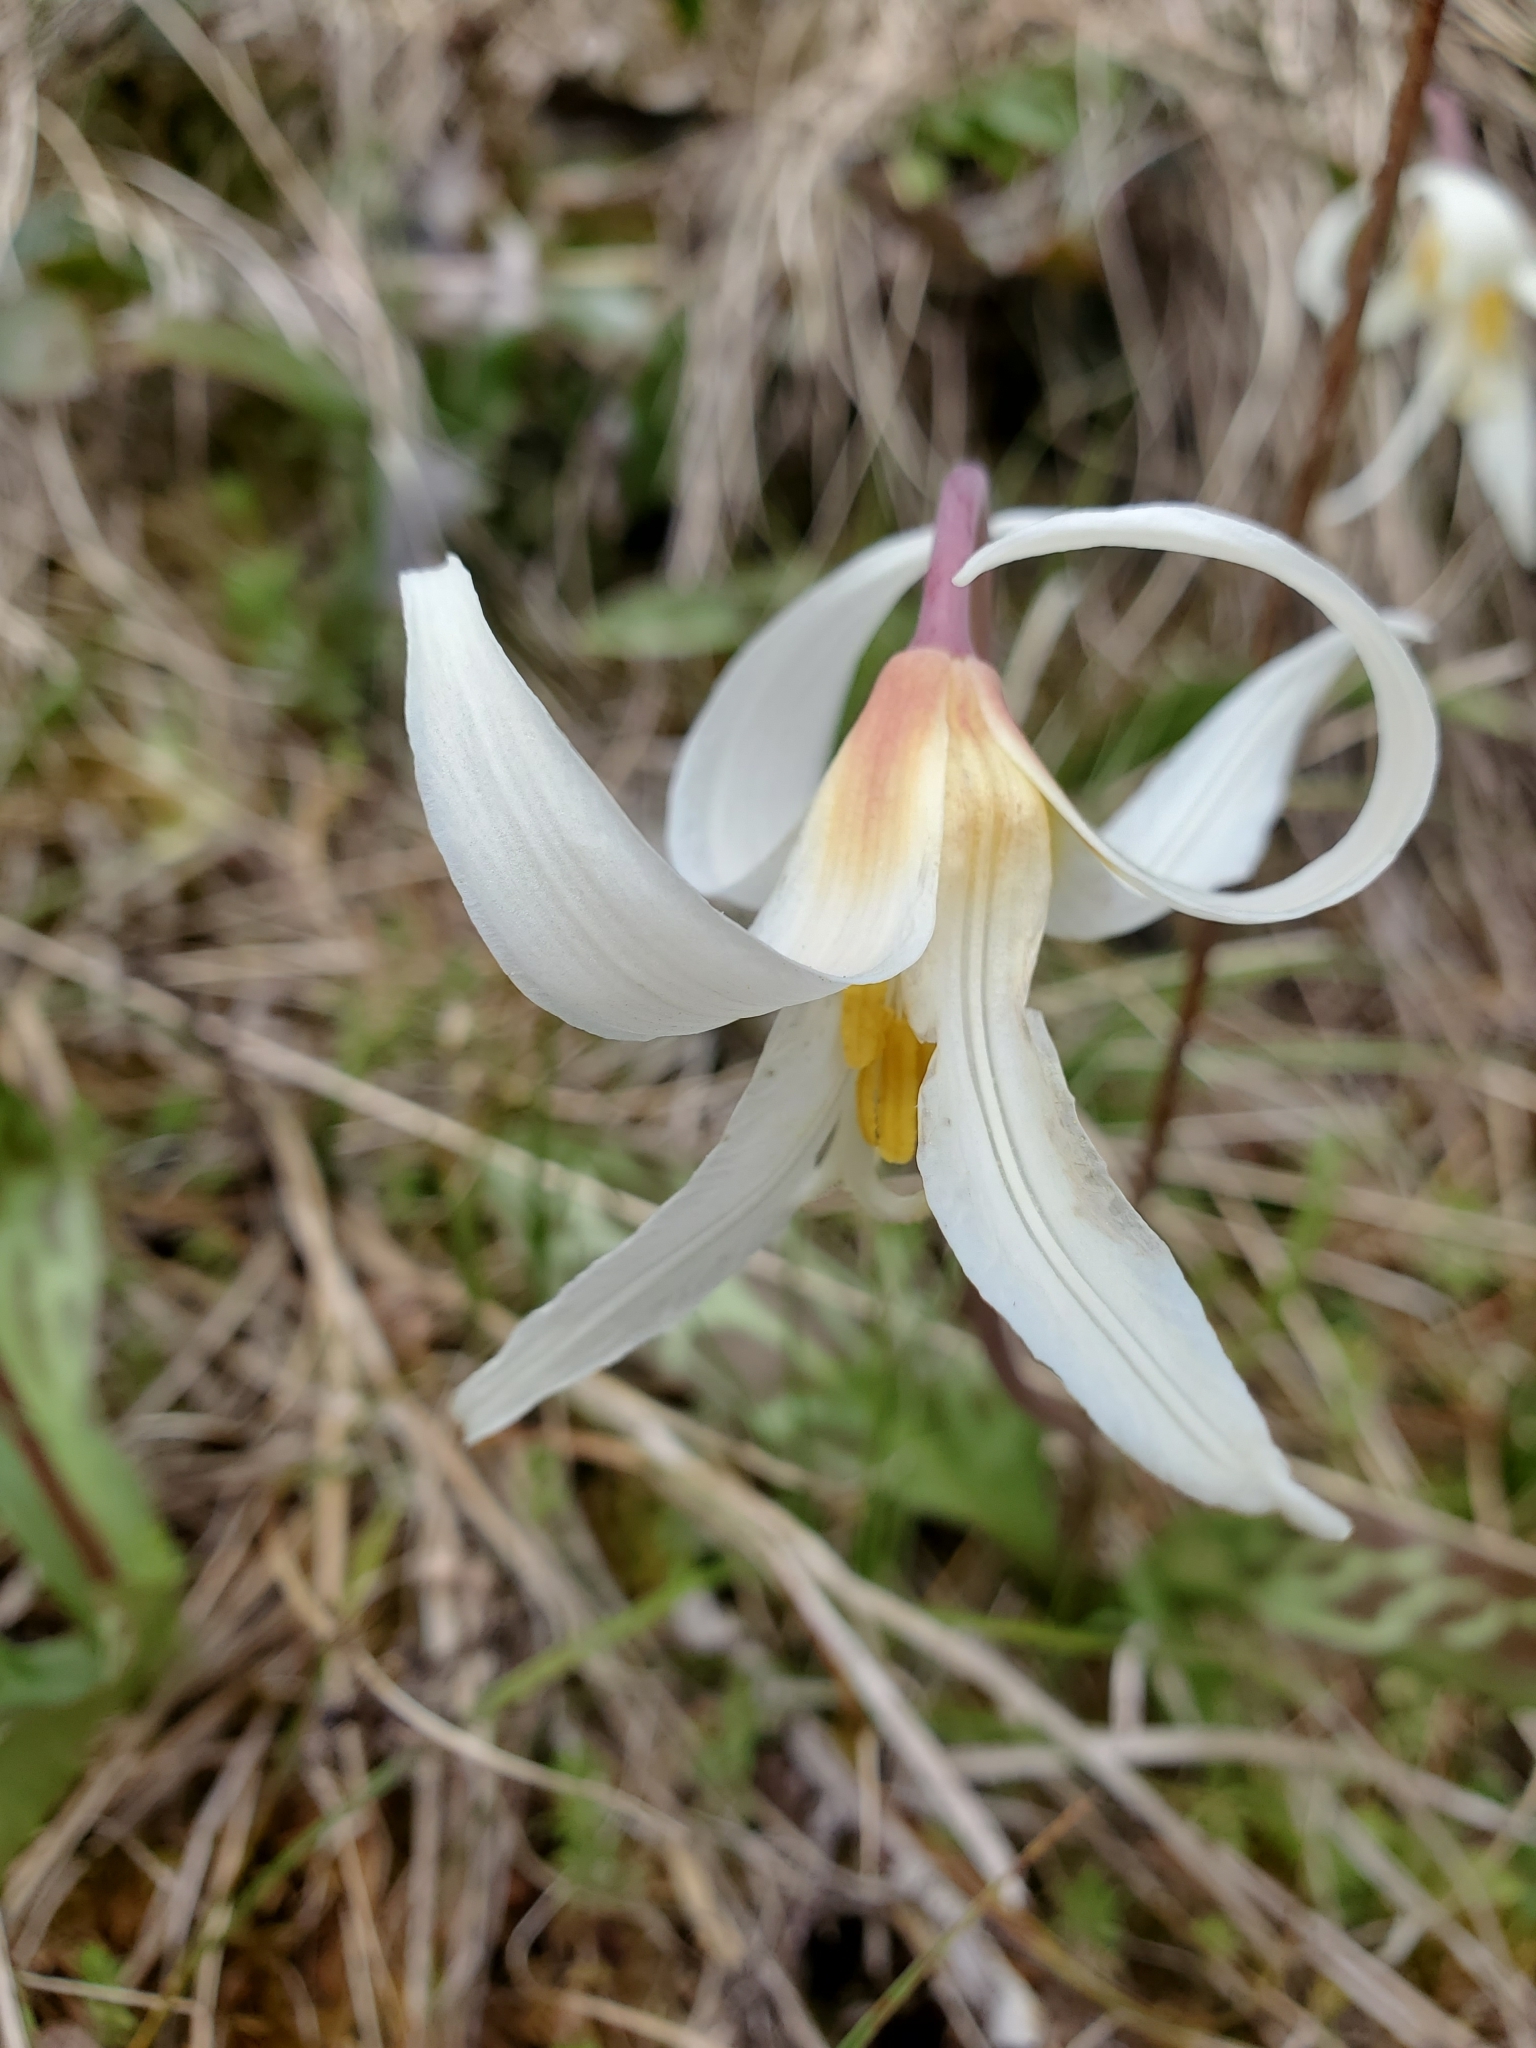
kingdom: Plantae
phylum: Tracheophyta
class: Liliopsida
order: Liliales
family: Liliaceae
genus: Erythronium
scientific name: Erythronium oregonum
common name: Giant adder's-tongue
